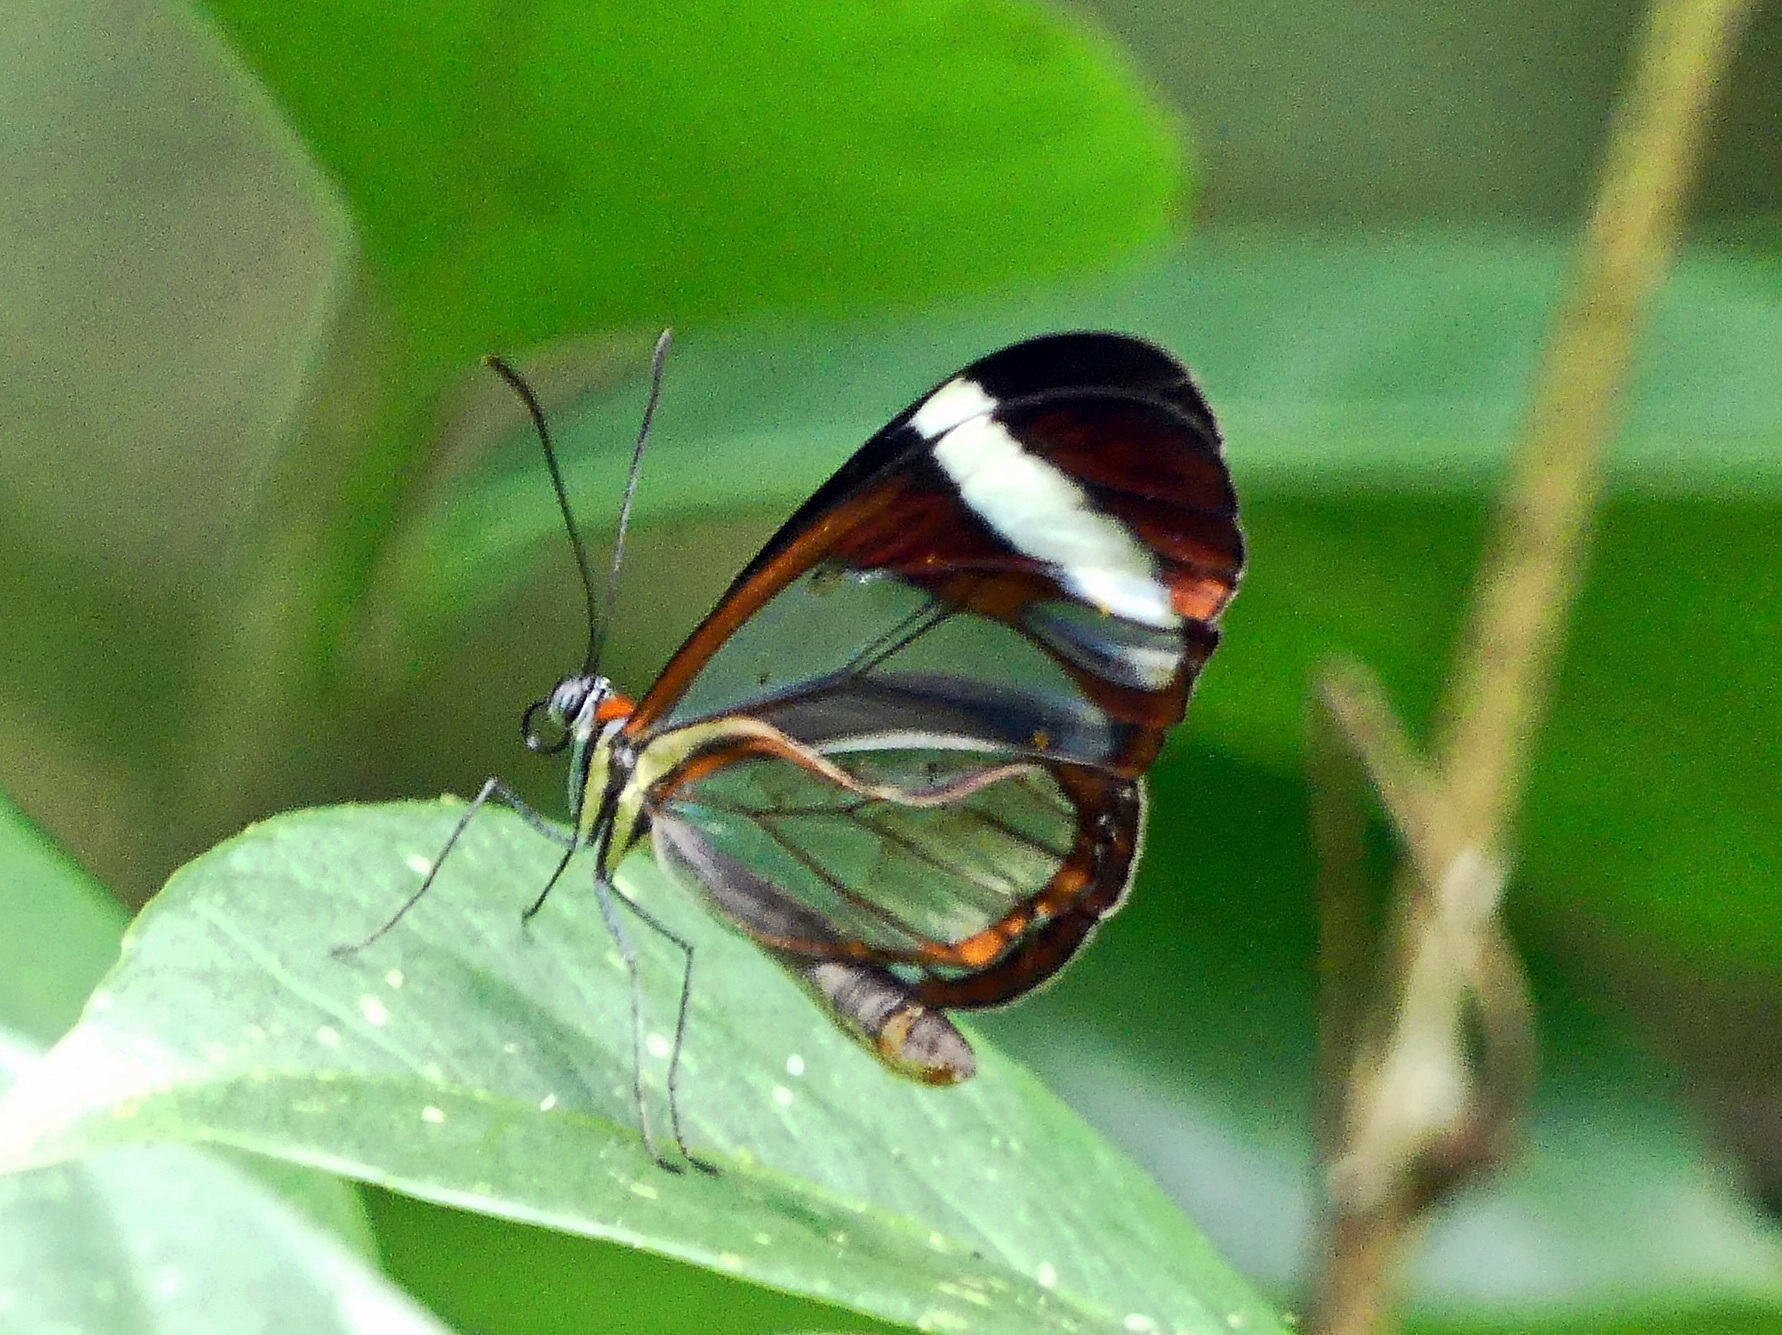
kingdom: Animalia
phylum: Arthropoda
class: Insecta
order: Lepidoptera
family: Nymphalidae
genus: Ithomia
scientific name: Ithomia patilla
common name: Patilla clearwing
